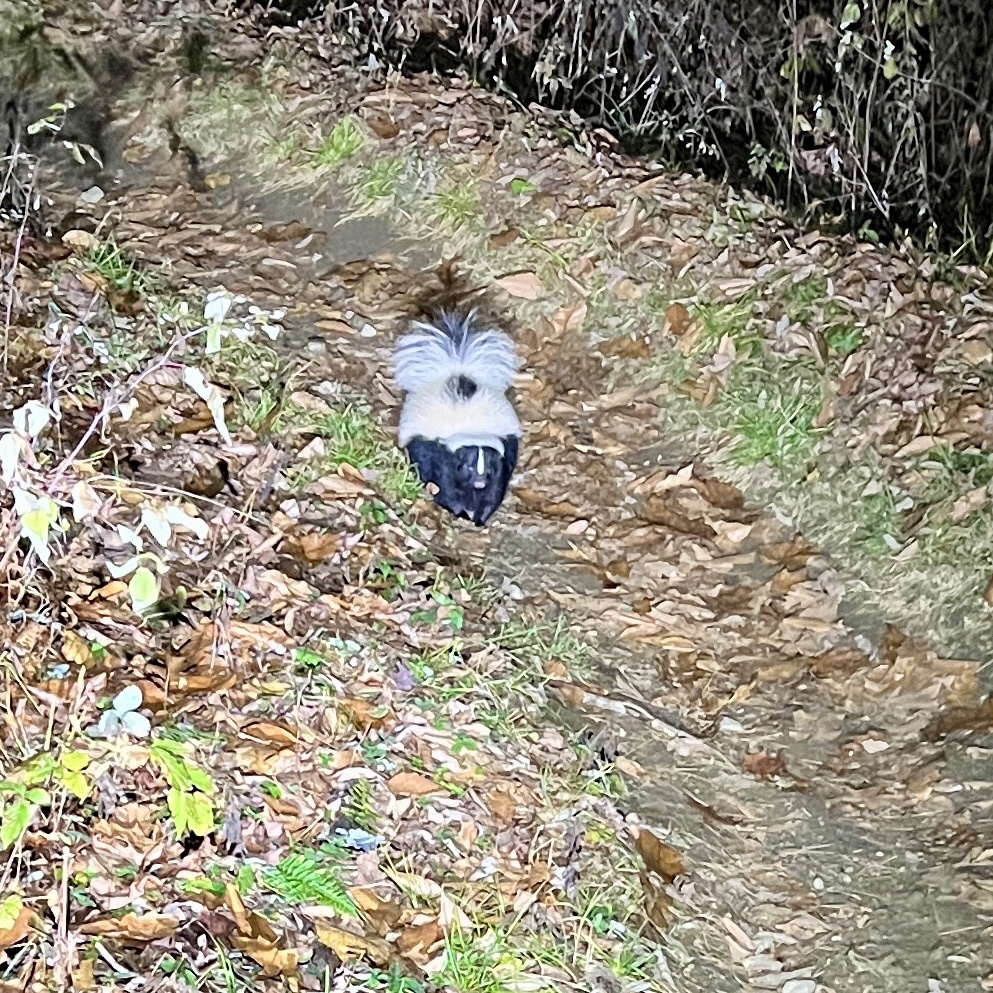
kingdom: Animalia
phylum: Chordata
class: Mammalia
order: Carnivora
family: Mephitidae
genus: Mephitis
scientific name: Mephitis mephitis
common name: Striped skunk
